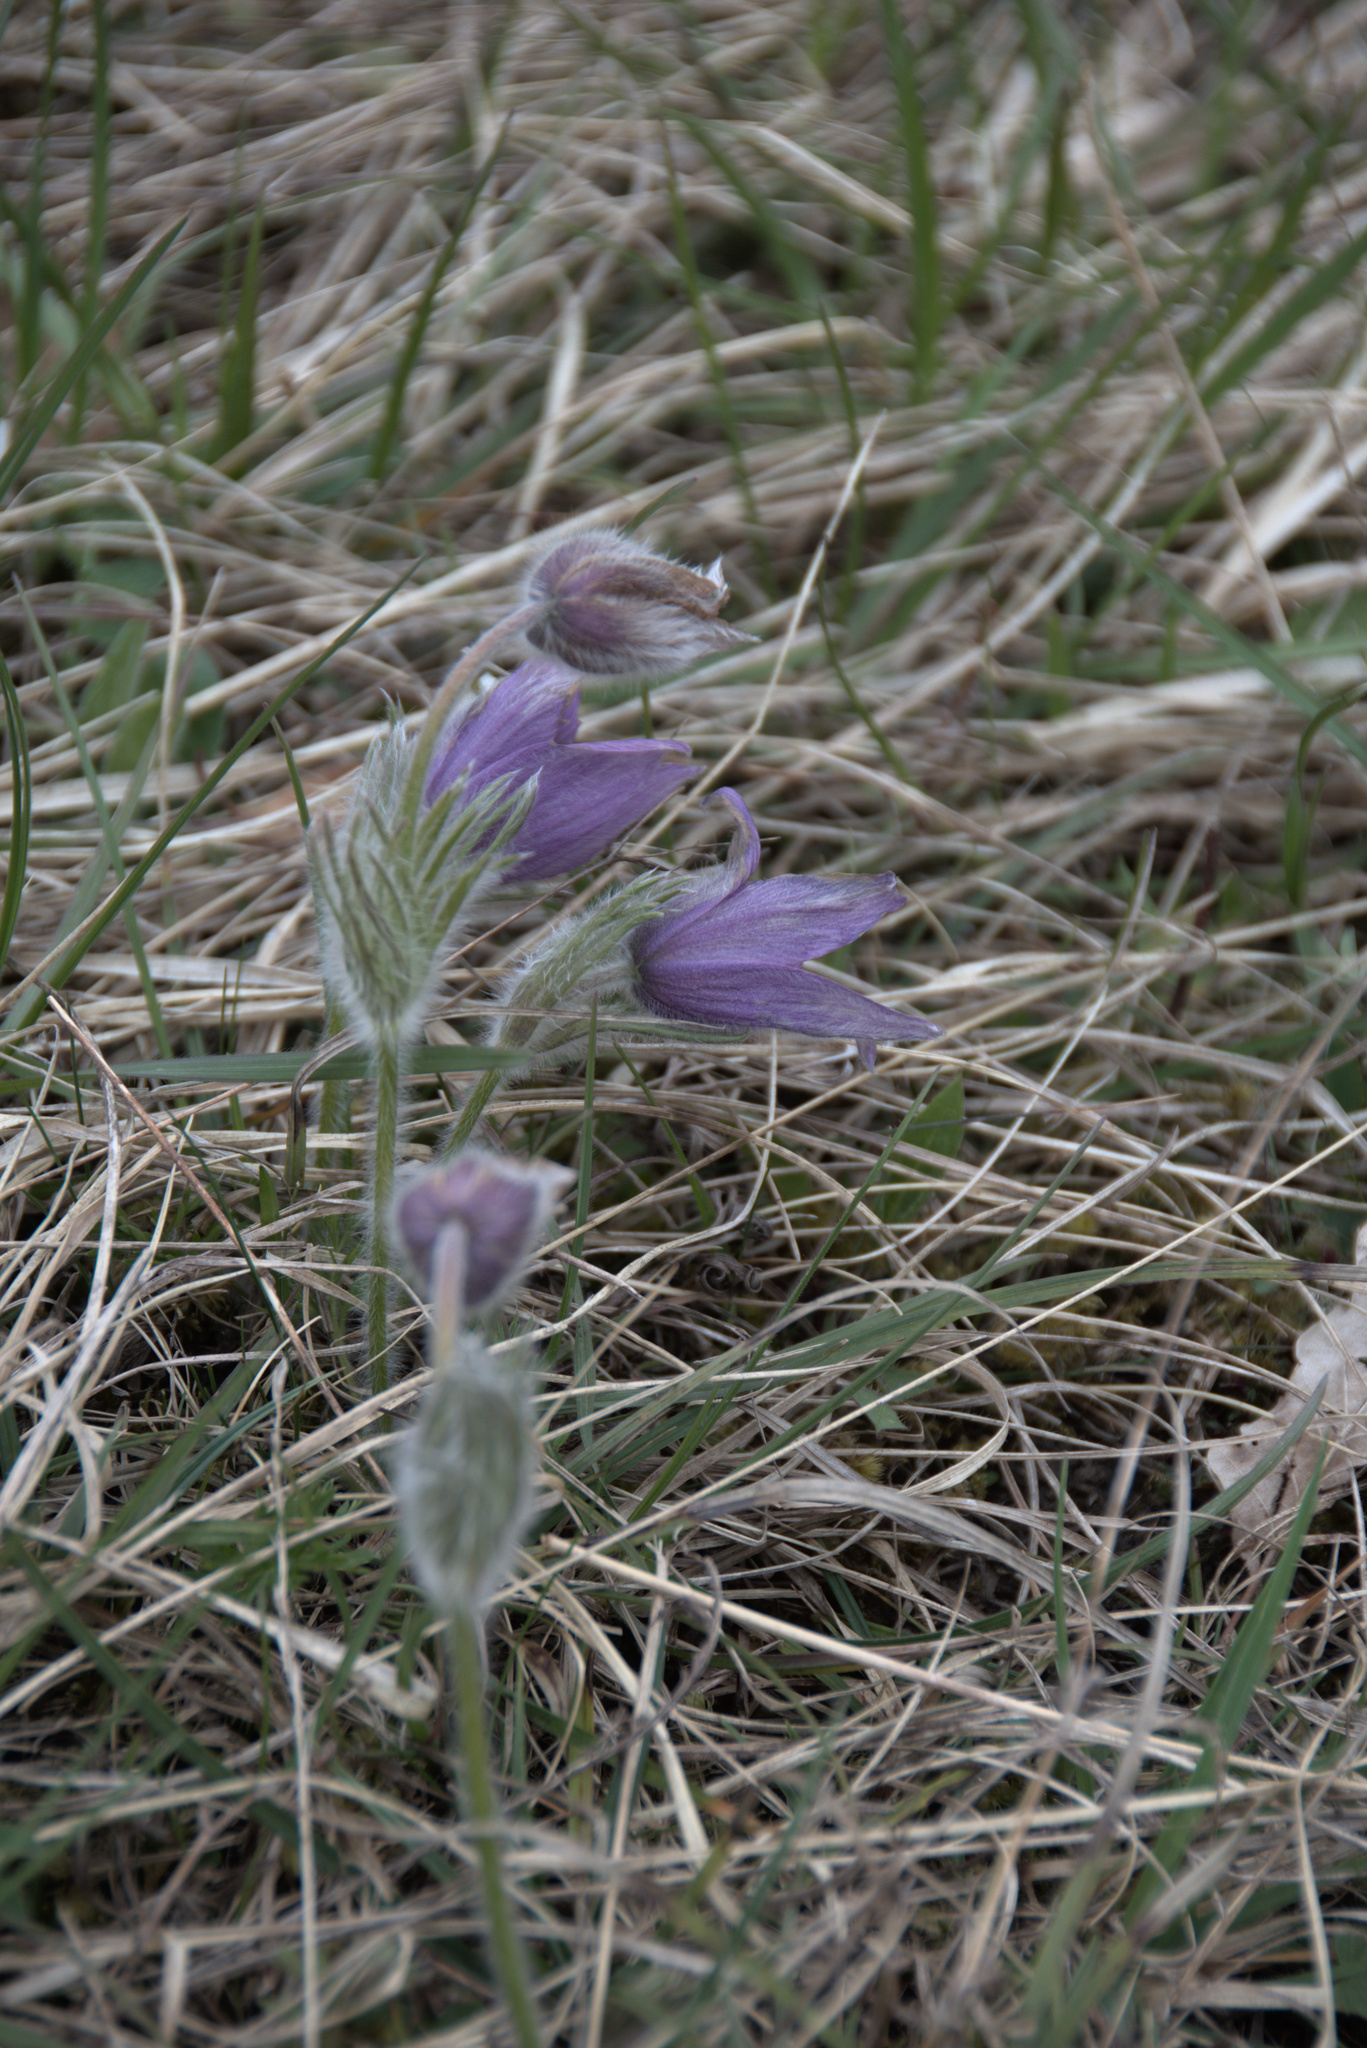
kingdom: Plantae
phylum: Tracheophyta
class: Magnoliopsida
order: Ranunculales
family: Ranunculaceae
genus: Pulsatilla
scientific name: Pulsatilla vulgaris
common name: Pasqueflower
